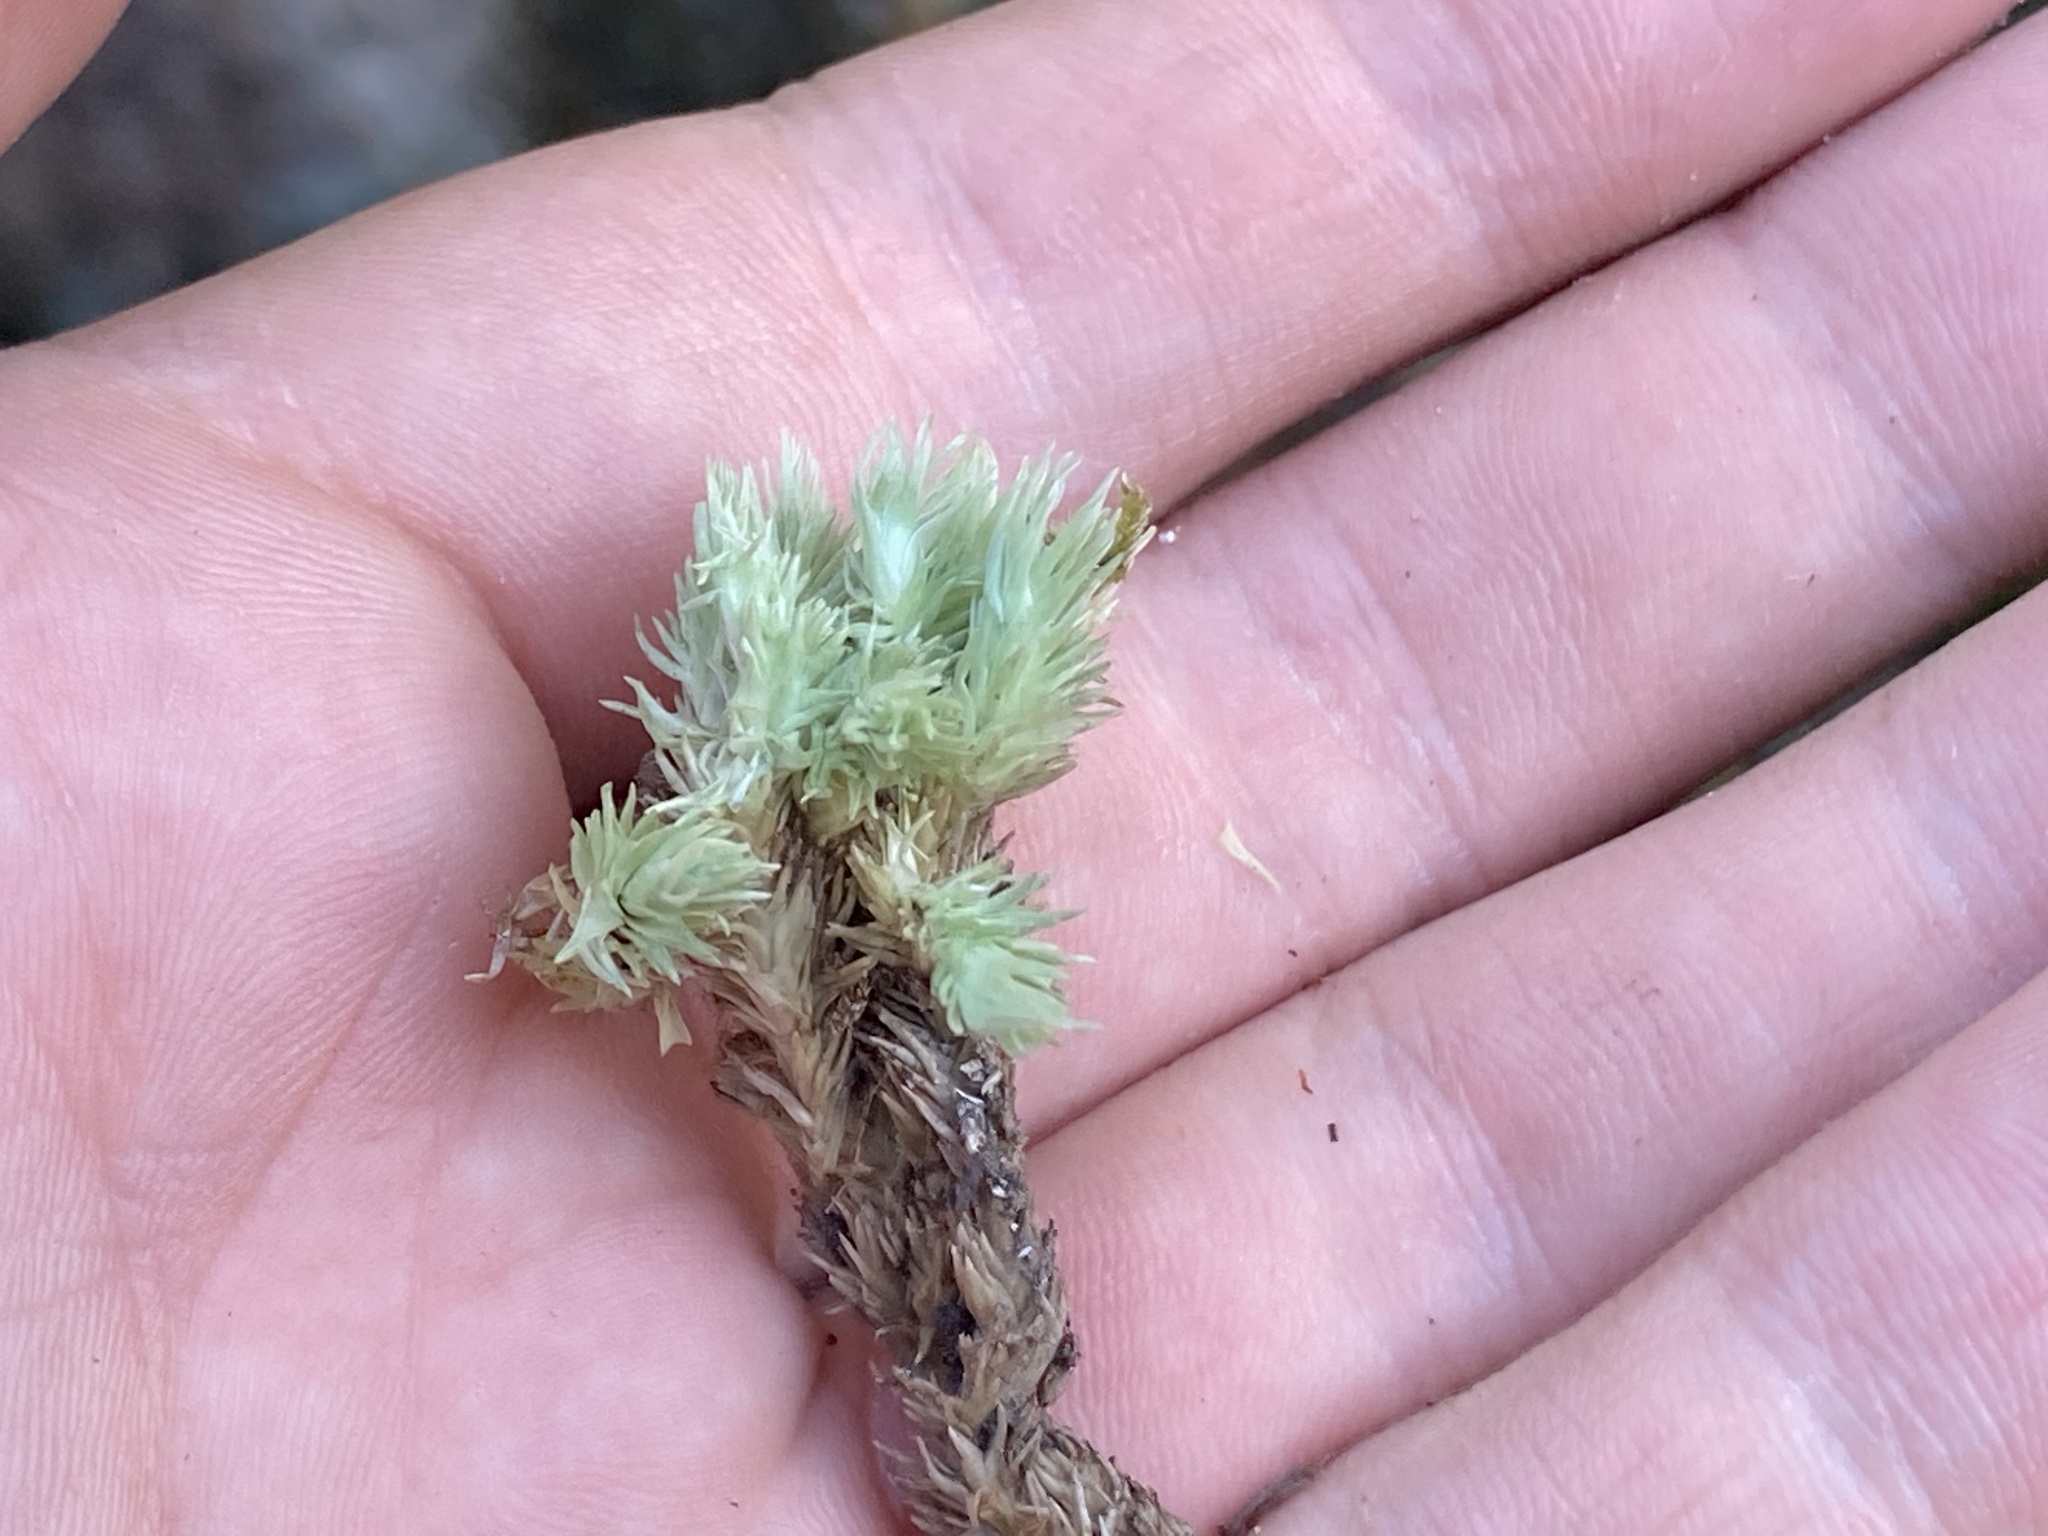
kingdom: Plantae
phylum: Bryophyta
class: Bryopsida
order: Dicranales
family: Leucobryaceae
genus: Leucobryum
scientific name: Leucobryum glaucum
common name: Large white-moss
